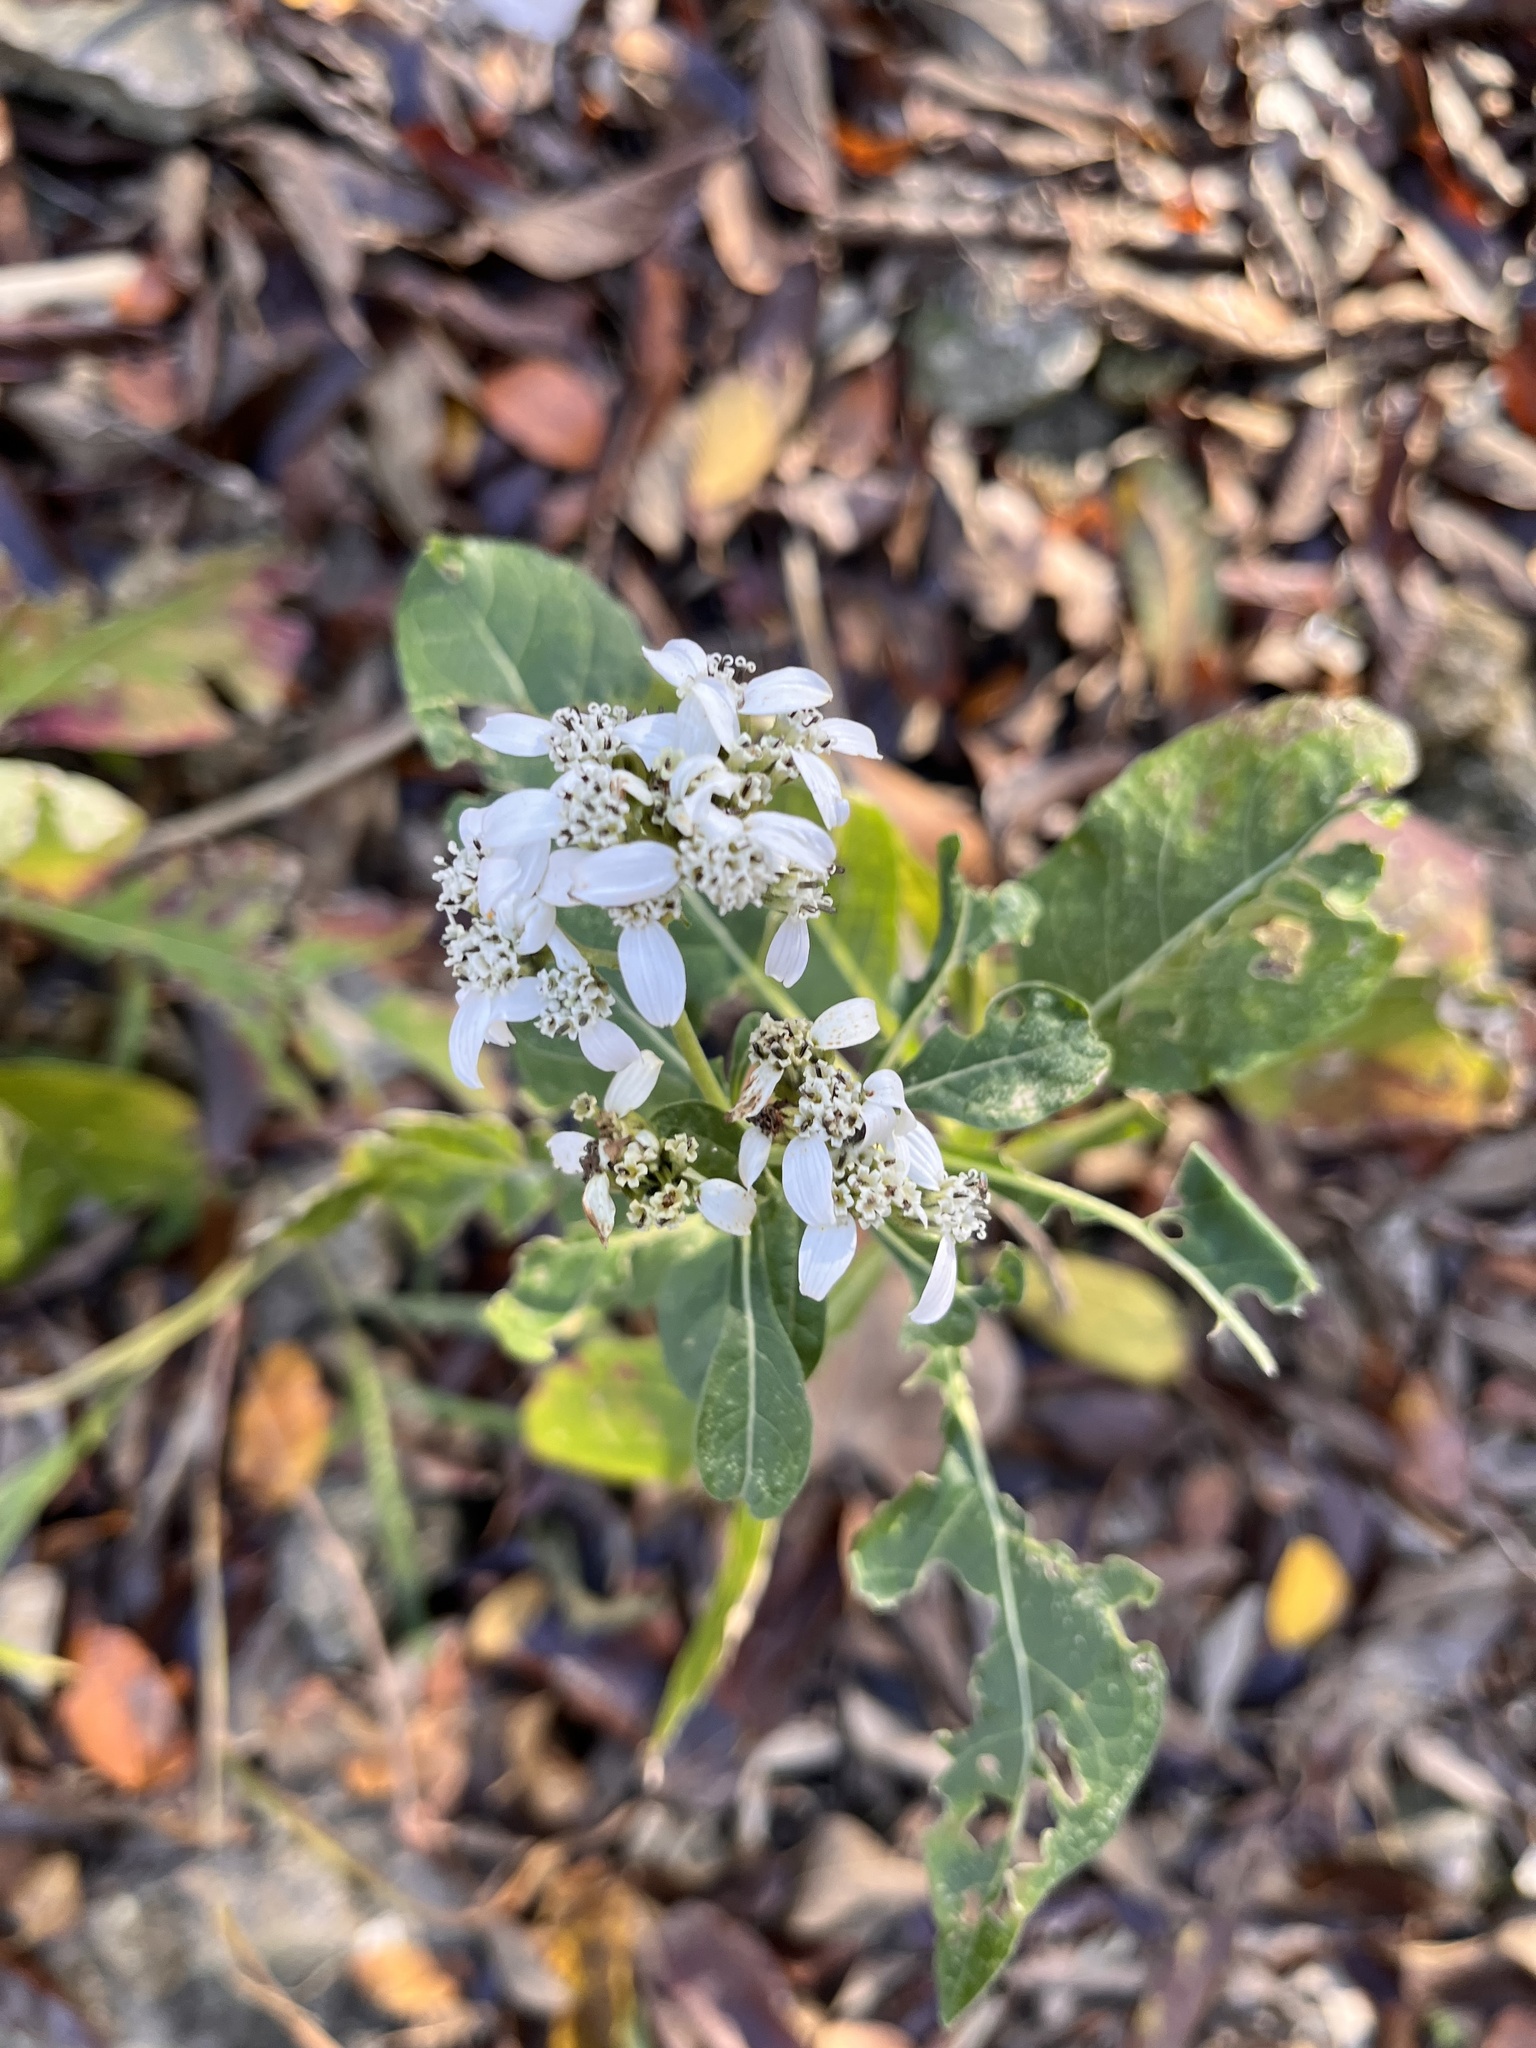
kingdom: Plantae
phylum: Tracheophyta
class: Magnoliopsida
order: Asterales
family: Asteraceae
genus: Verbesina
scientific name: Verbesina virginica
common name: Frostweed
